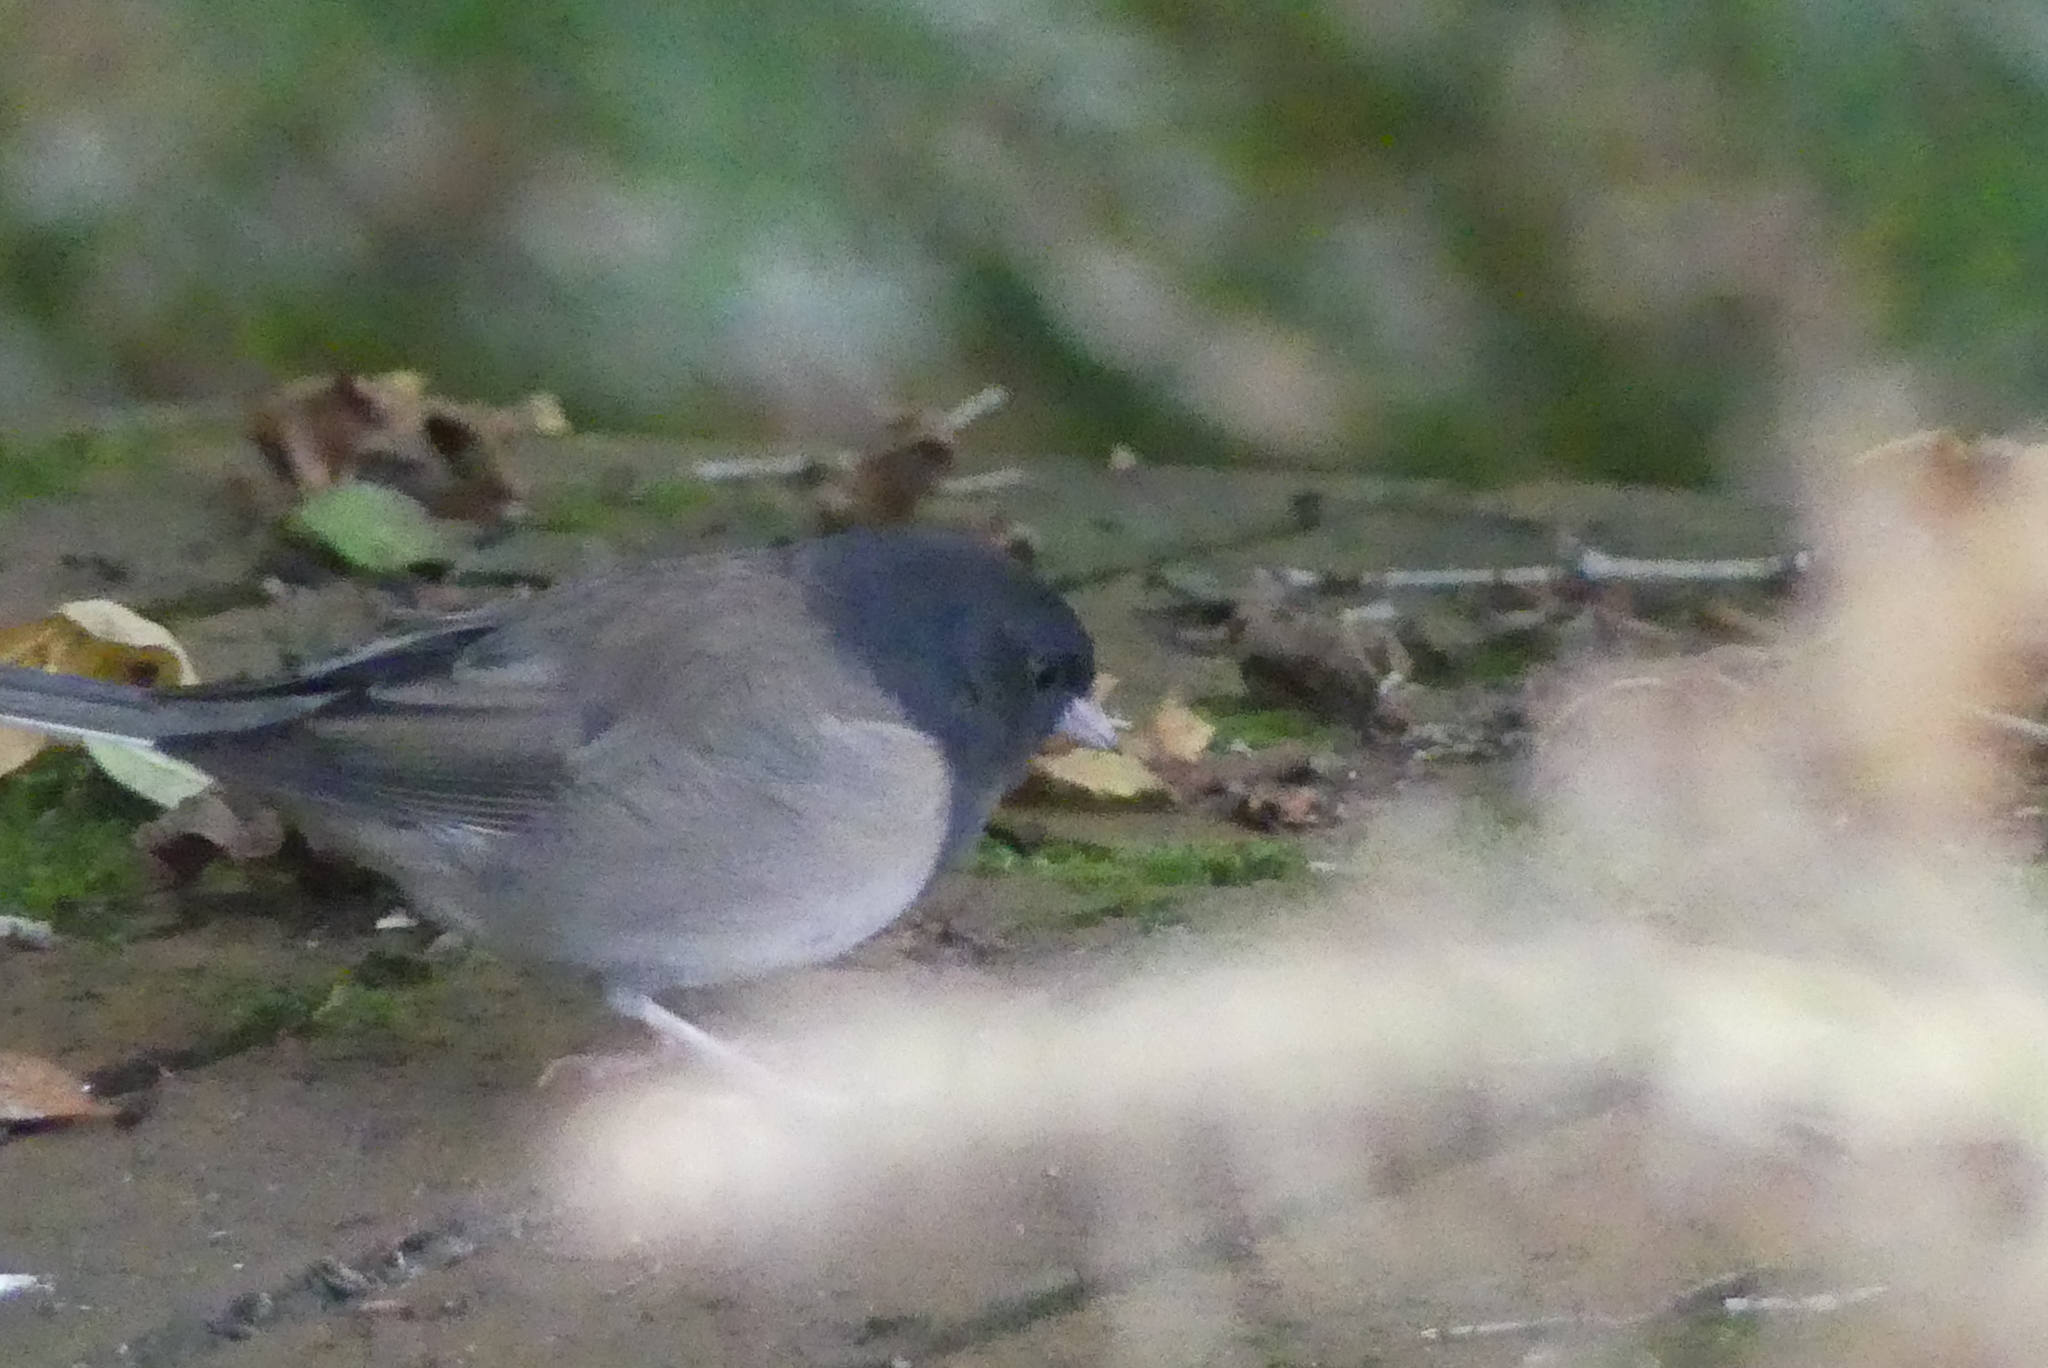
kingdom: Animalia
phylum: Chordata
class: Aves
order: Passeriformes
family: Passerellidae
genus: Junco
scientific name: Junco hyemalis
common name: Dark-eyed junco
